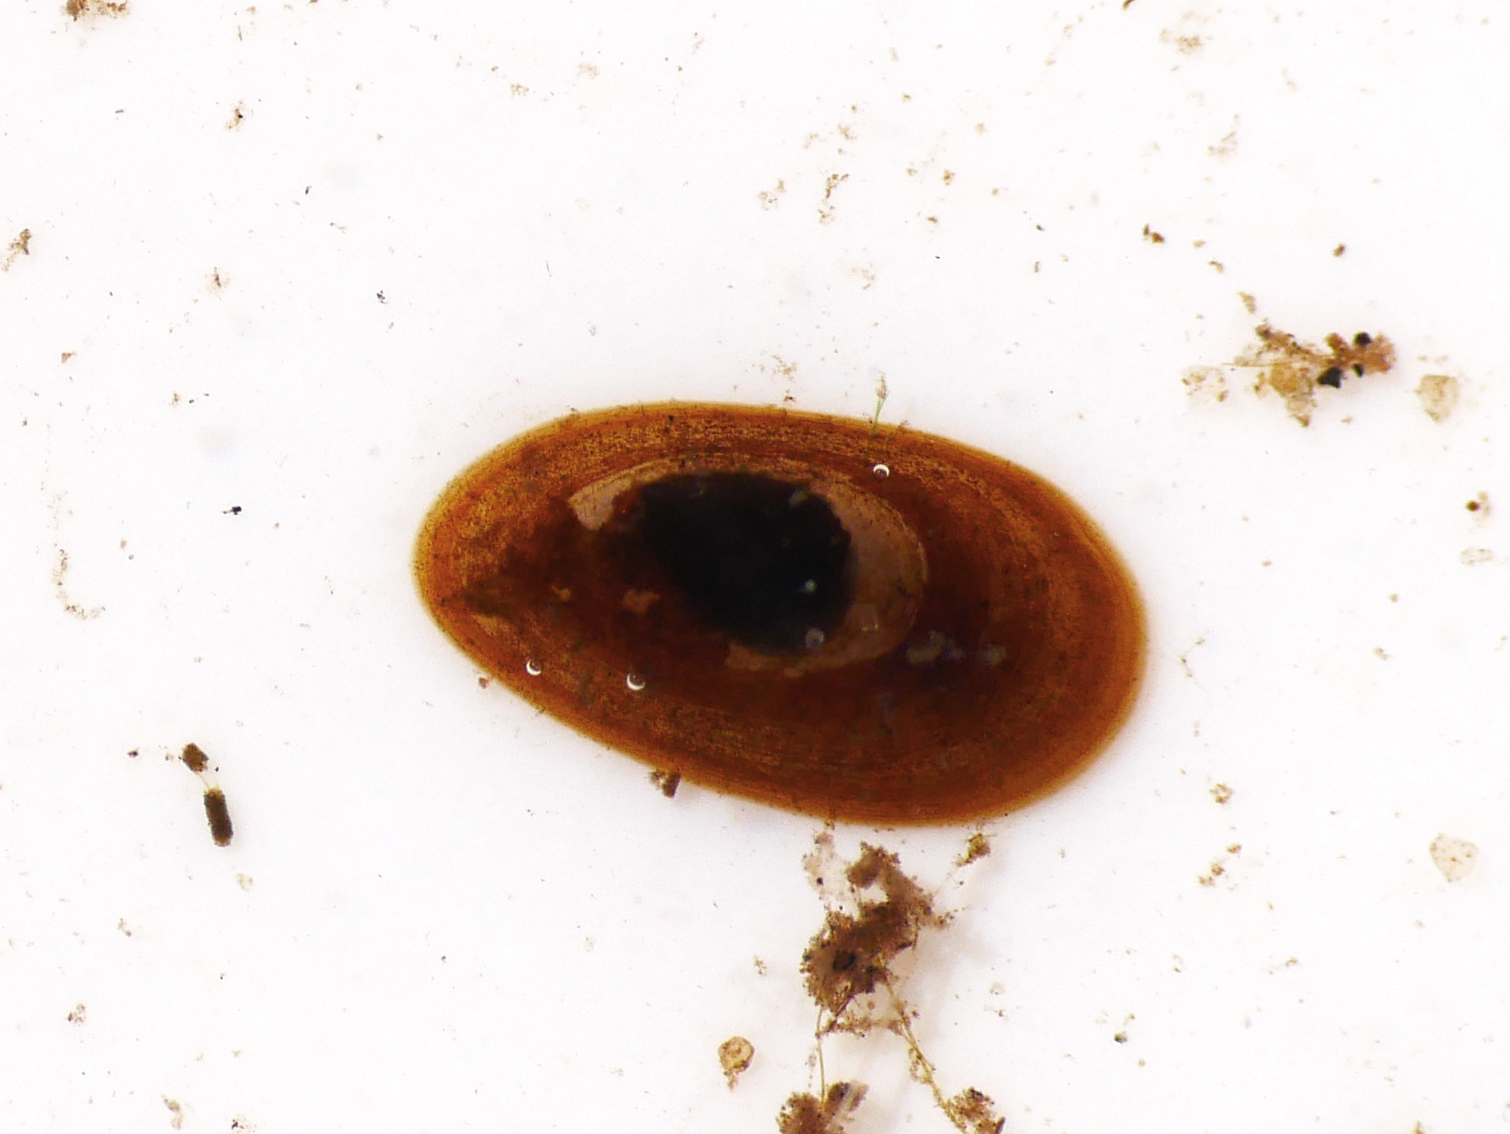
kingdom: Animalia
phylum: Mollusca
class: Gastropoda
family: Acroloxidae
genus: Acroloxus
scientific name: Acroloxus lacustris
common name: Lake limpet
